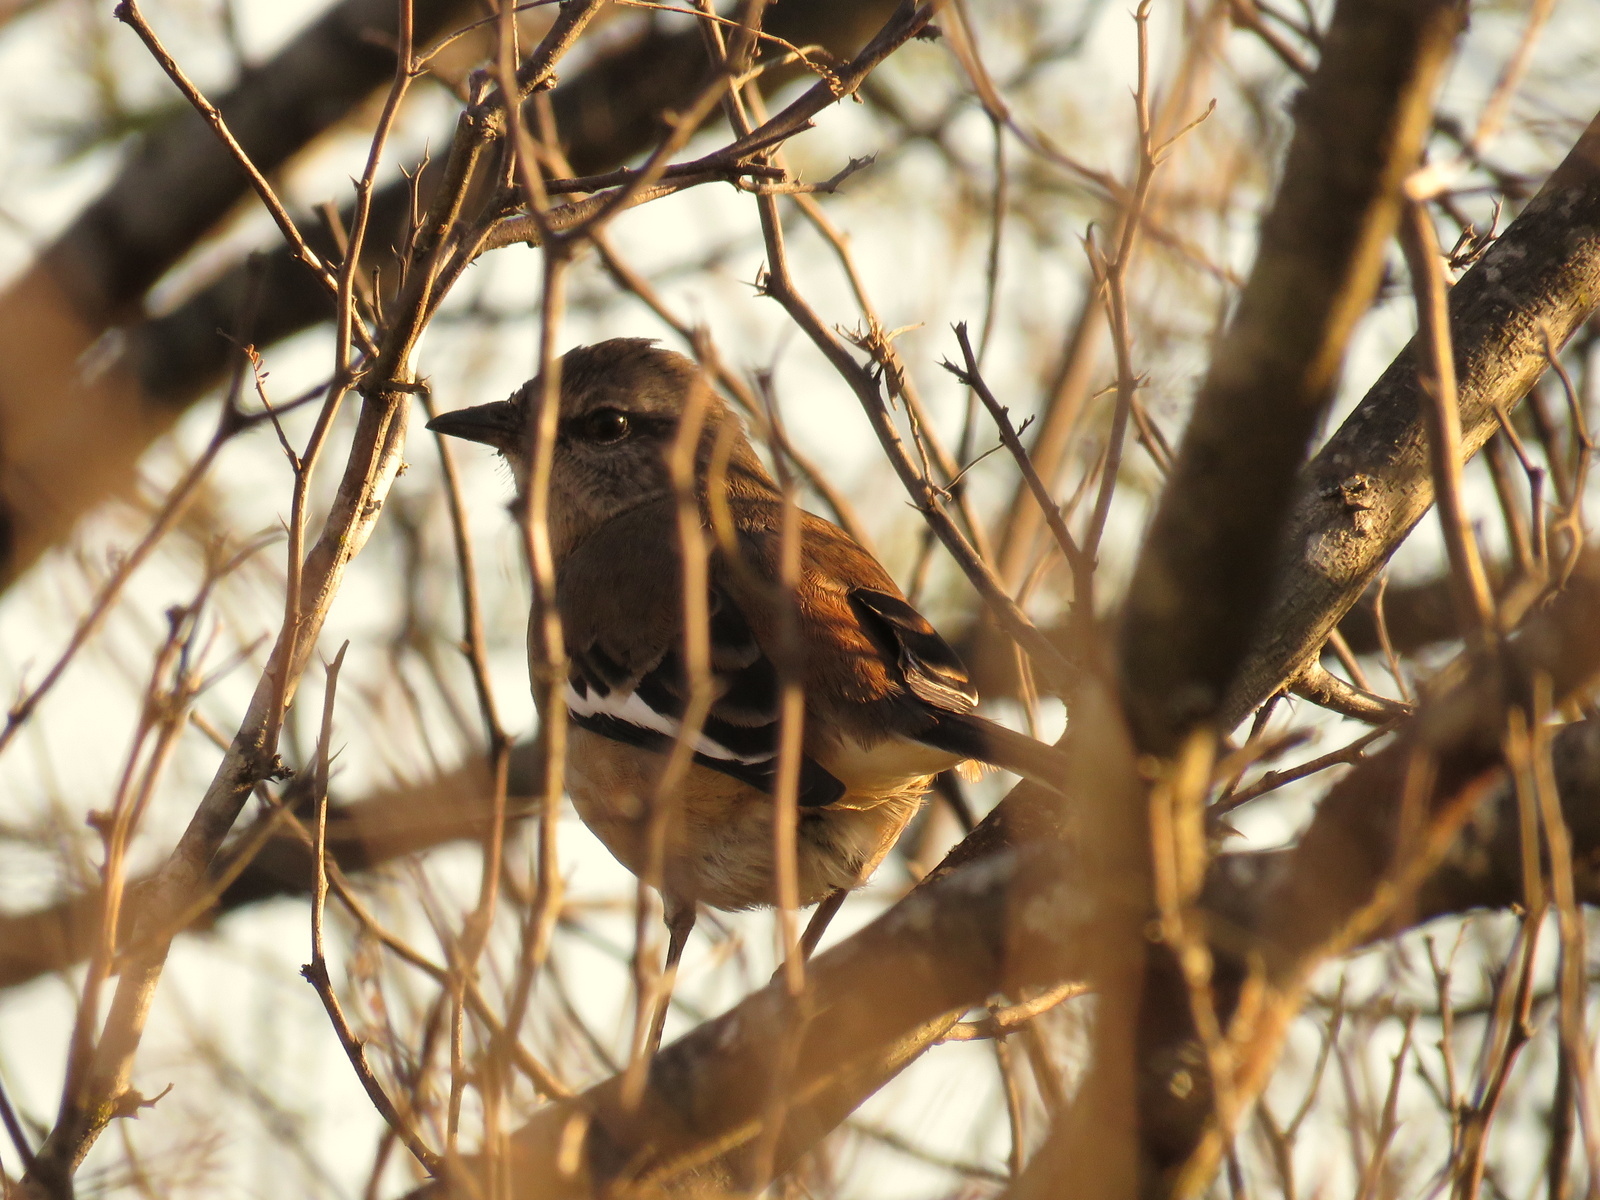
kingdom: Animalia
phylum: Chordata
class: Aves
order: Passeriformes
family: Mimidae
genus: Mimus
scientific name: Mimus triurus
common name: White-banded mockingbird
